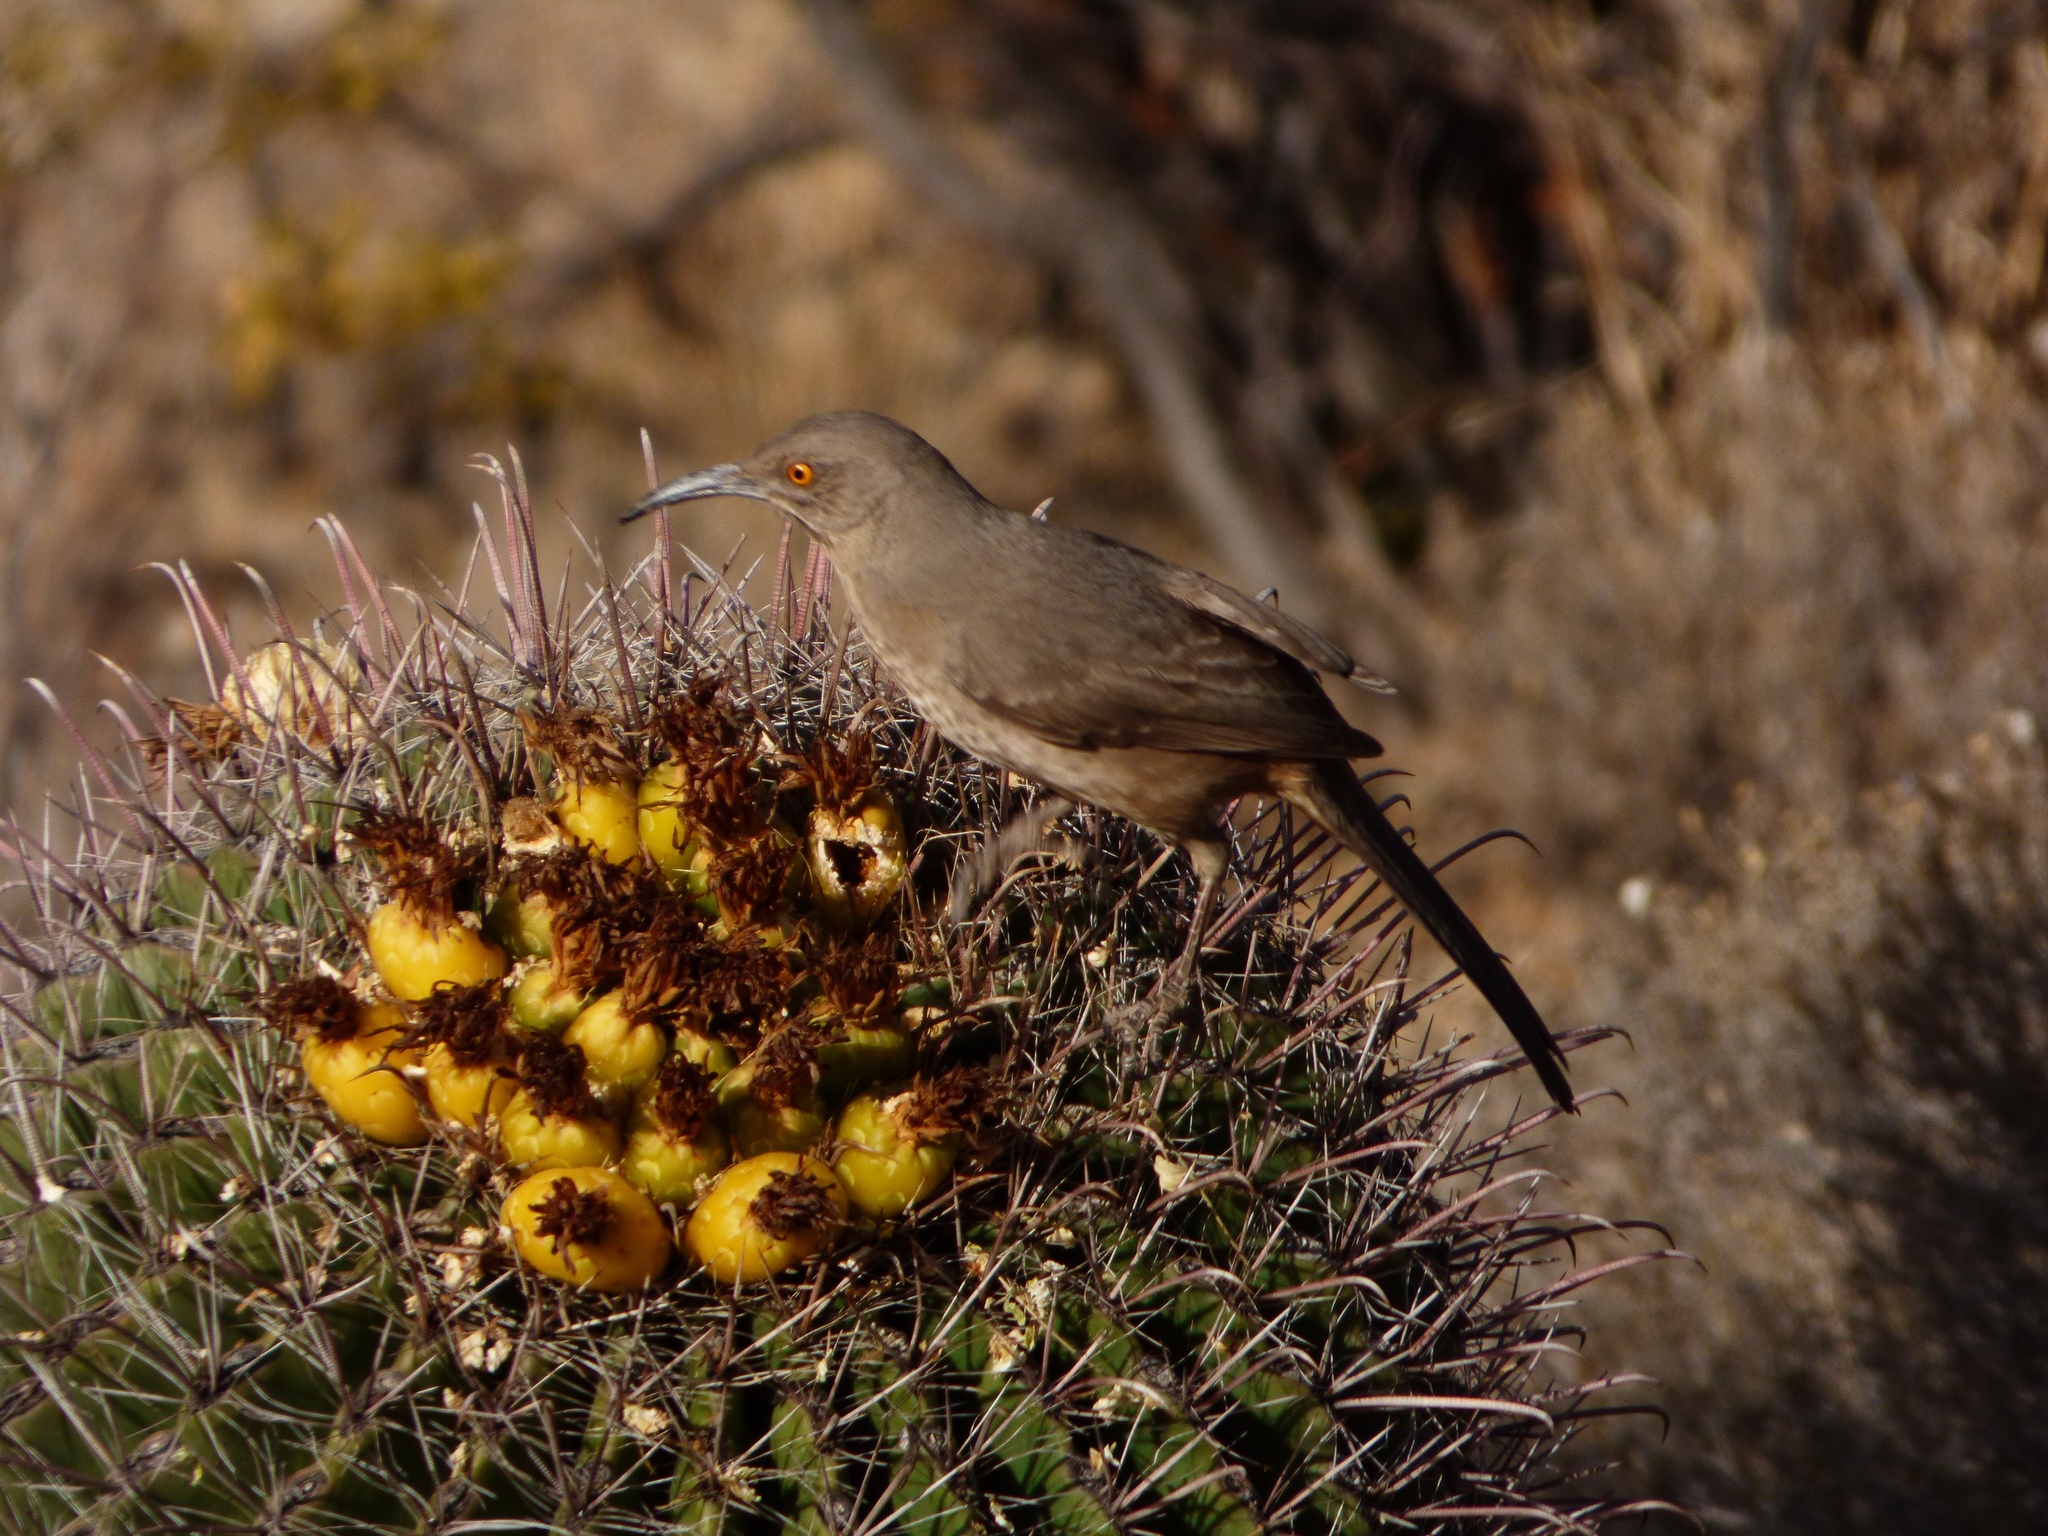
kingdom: Animalia
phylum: Chordata
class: Aves
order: Passeriformes
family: Mimidae
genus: Toxostoma
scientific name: Toxostoma curvirostre
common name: Curve-billed thrasher
